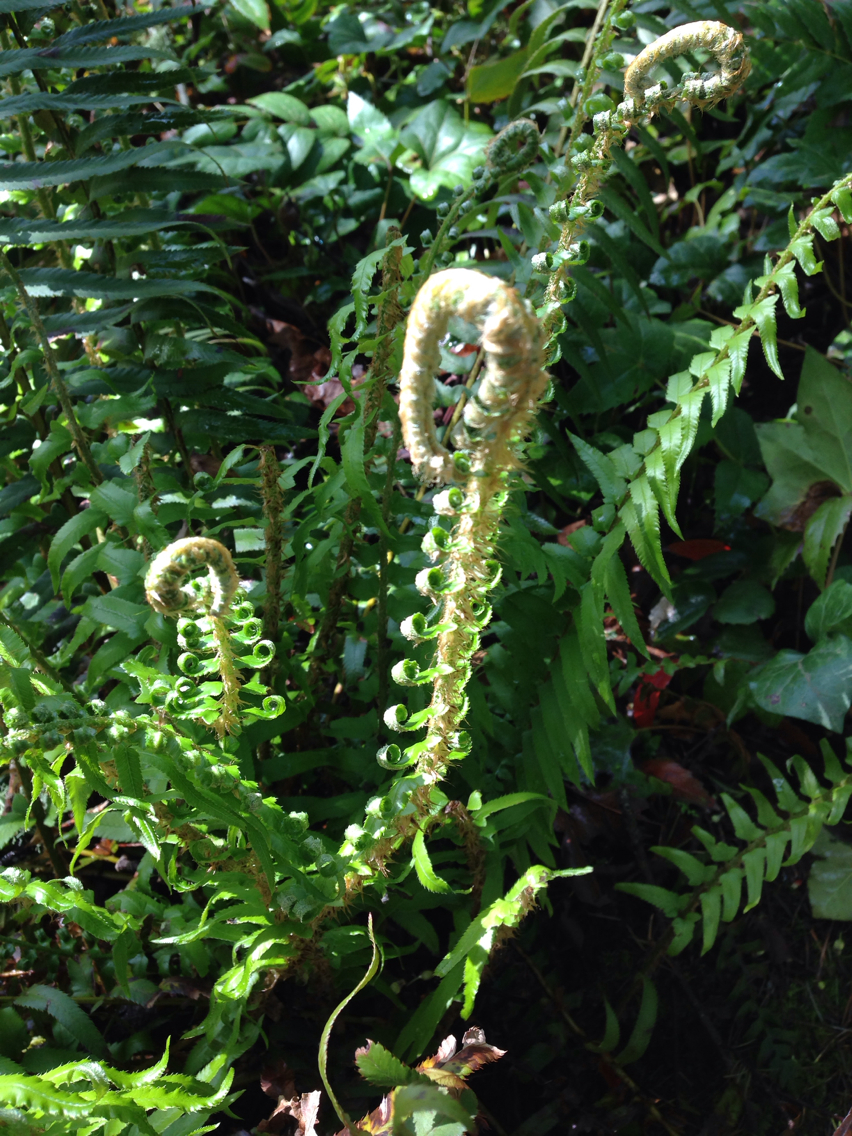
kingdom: Plantae
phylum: Tracheophyta
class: Polypodiopsida
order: Polypodiales
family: Dryopteridaceae
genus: Polystichum
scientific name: Polystichum munitum
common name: Western sword-fern
